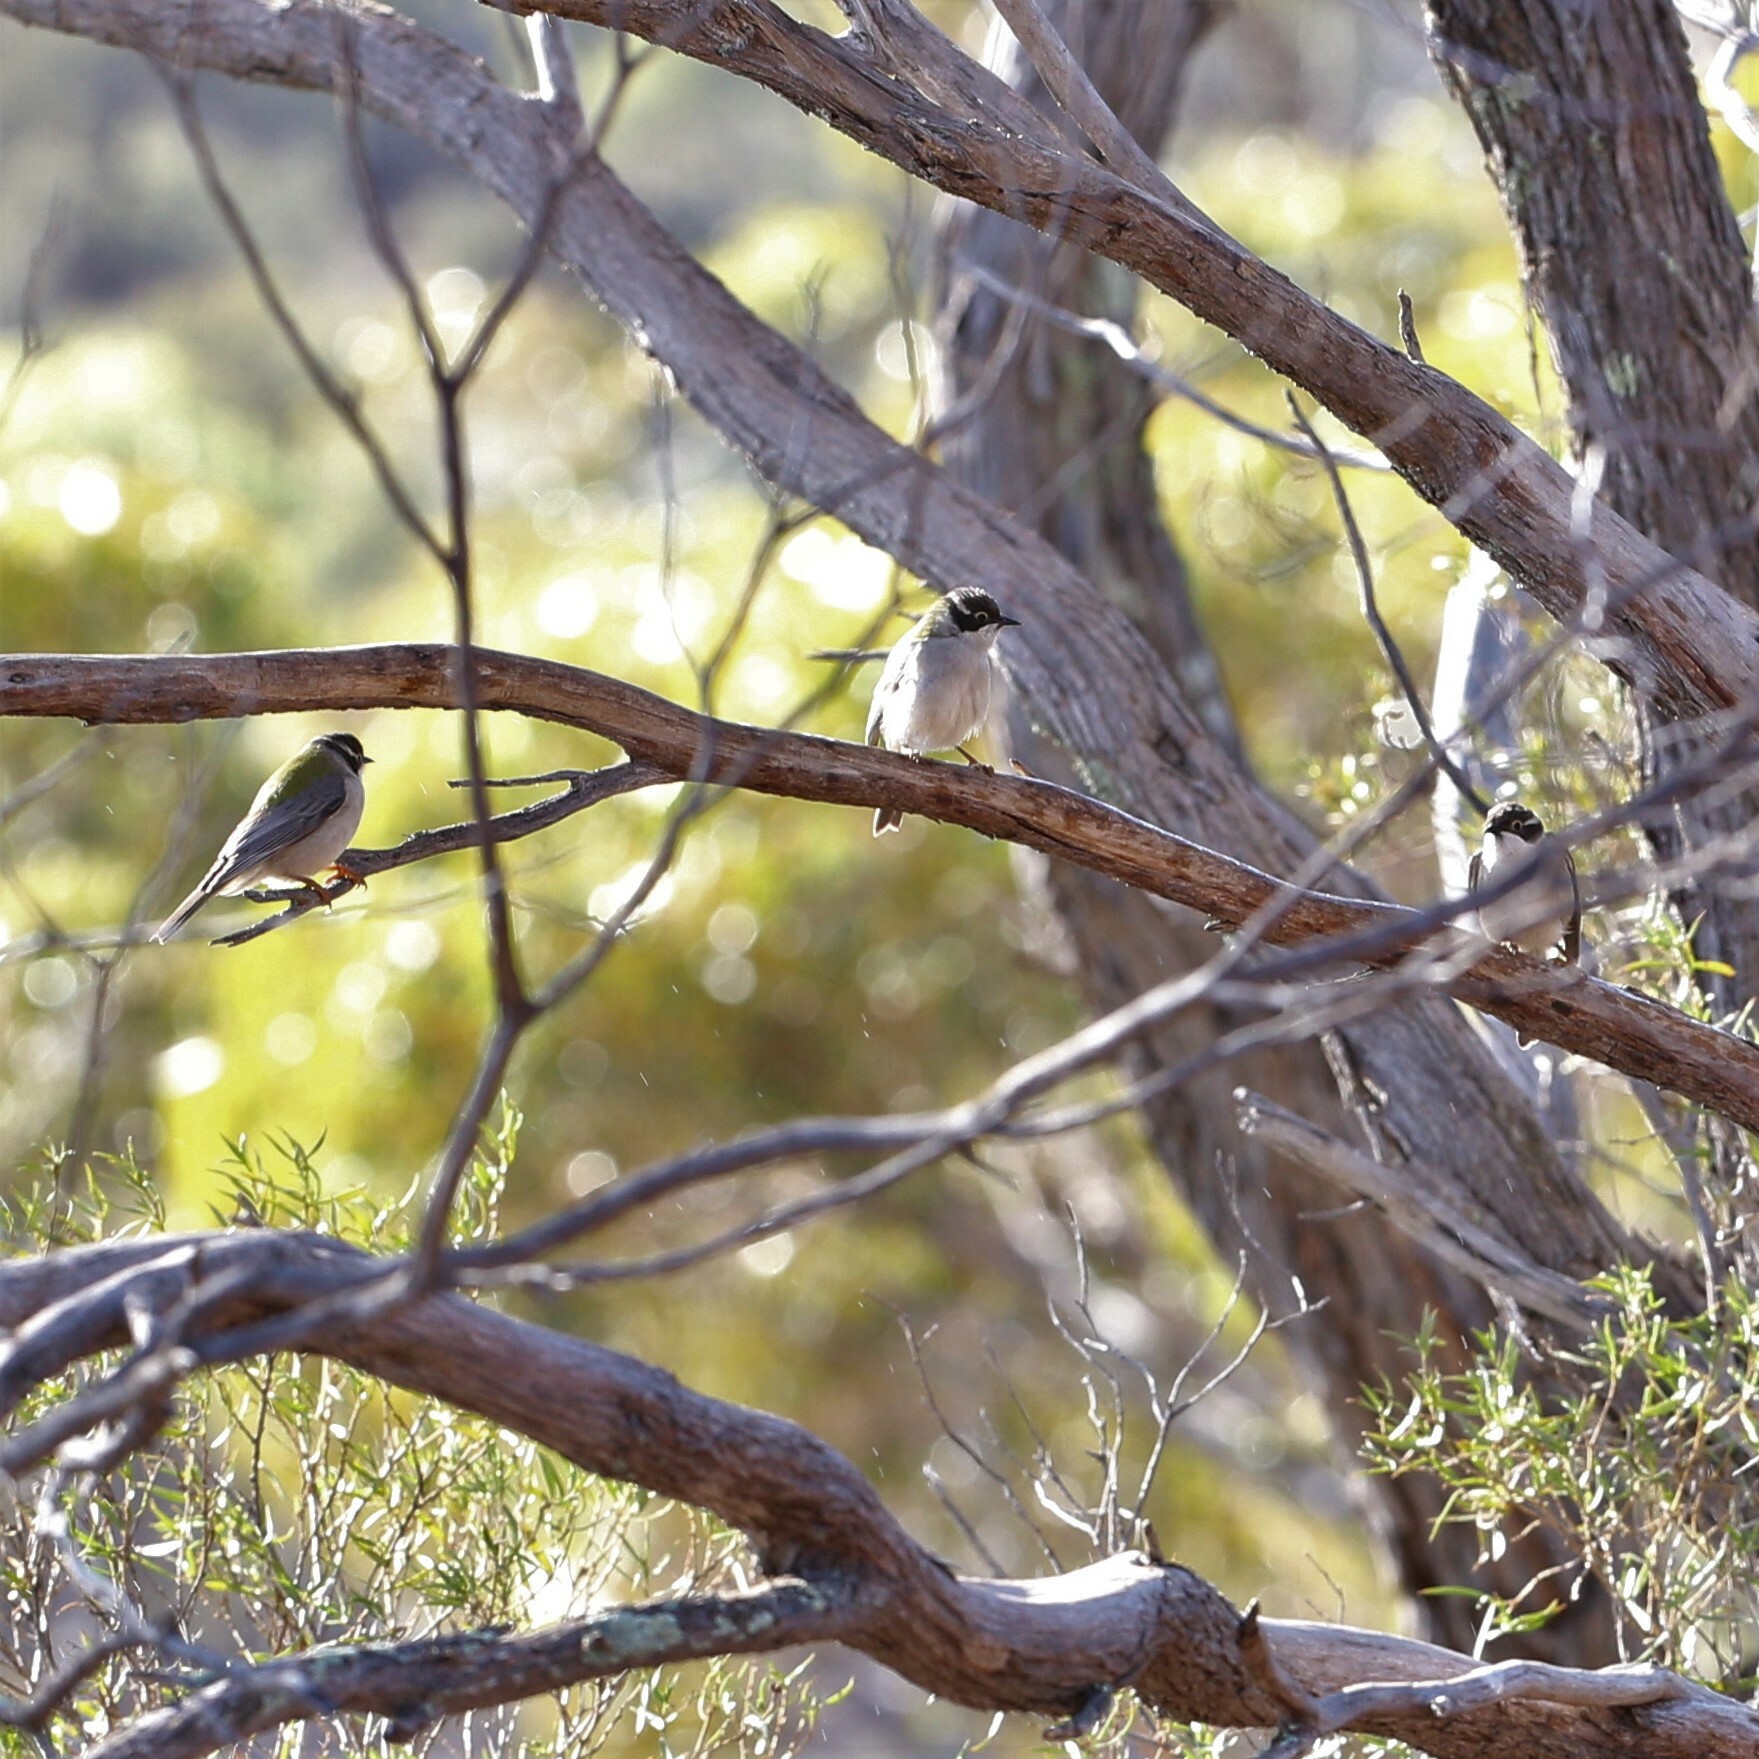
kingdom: Animalia
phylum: Chordata
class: Aves
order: Passeriformes
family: Meliphagidae
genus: Melithreptus
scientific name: Melithreptus brevirostris
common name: Brown-headed honeyeater
